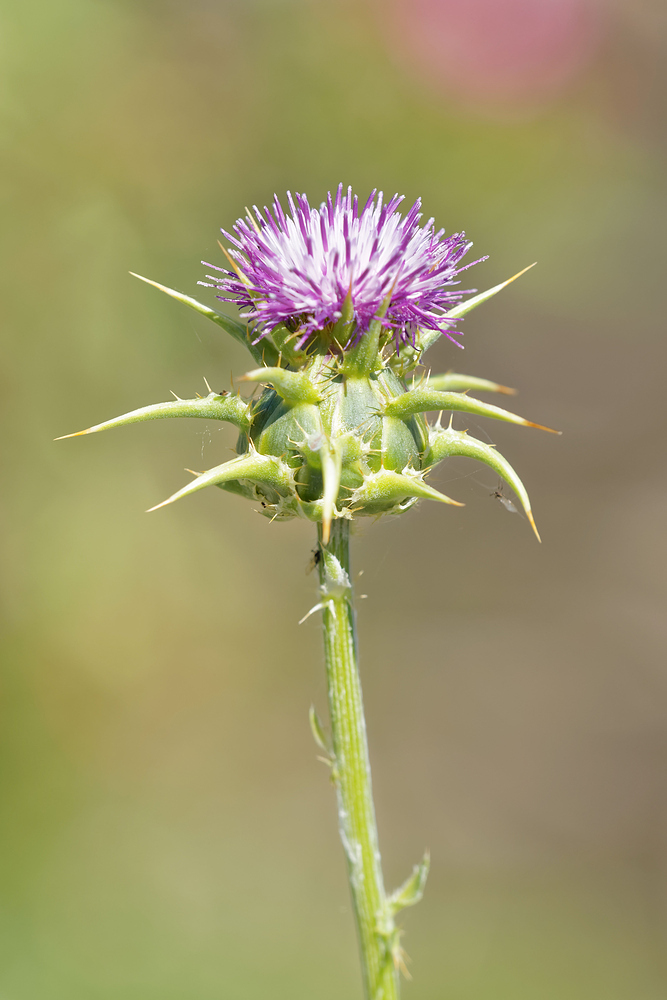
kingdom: Plantae
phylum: Tracheophyta
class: Magnoliopsida
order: Asterales
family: Asteraceae
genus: Silybum
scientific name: Silybum marianum
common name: Milk thistle
